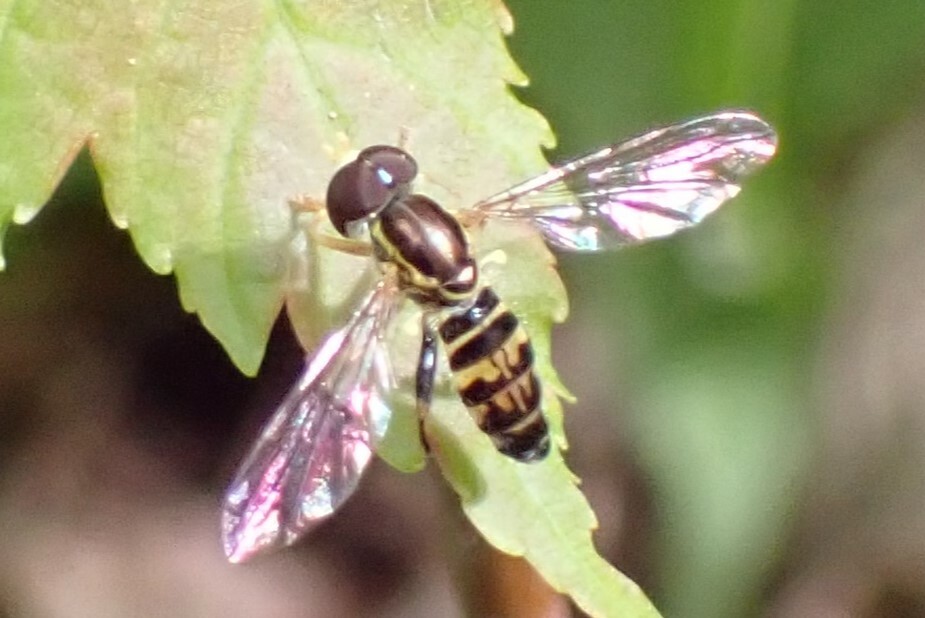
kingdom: Animalia
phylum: Arthropoda
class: Insecta
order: Diptera
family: Syrphidae
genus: Toxomerus
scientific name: Toxomerus geminatus
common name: Eastern calligrapher
